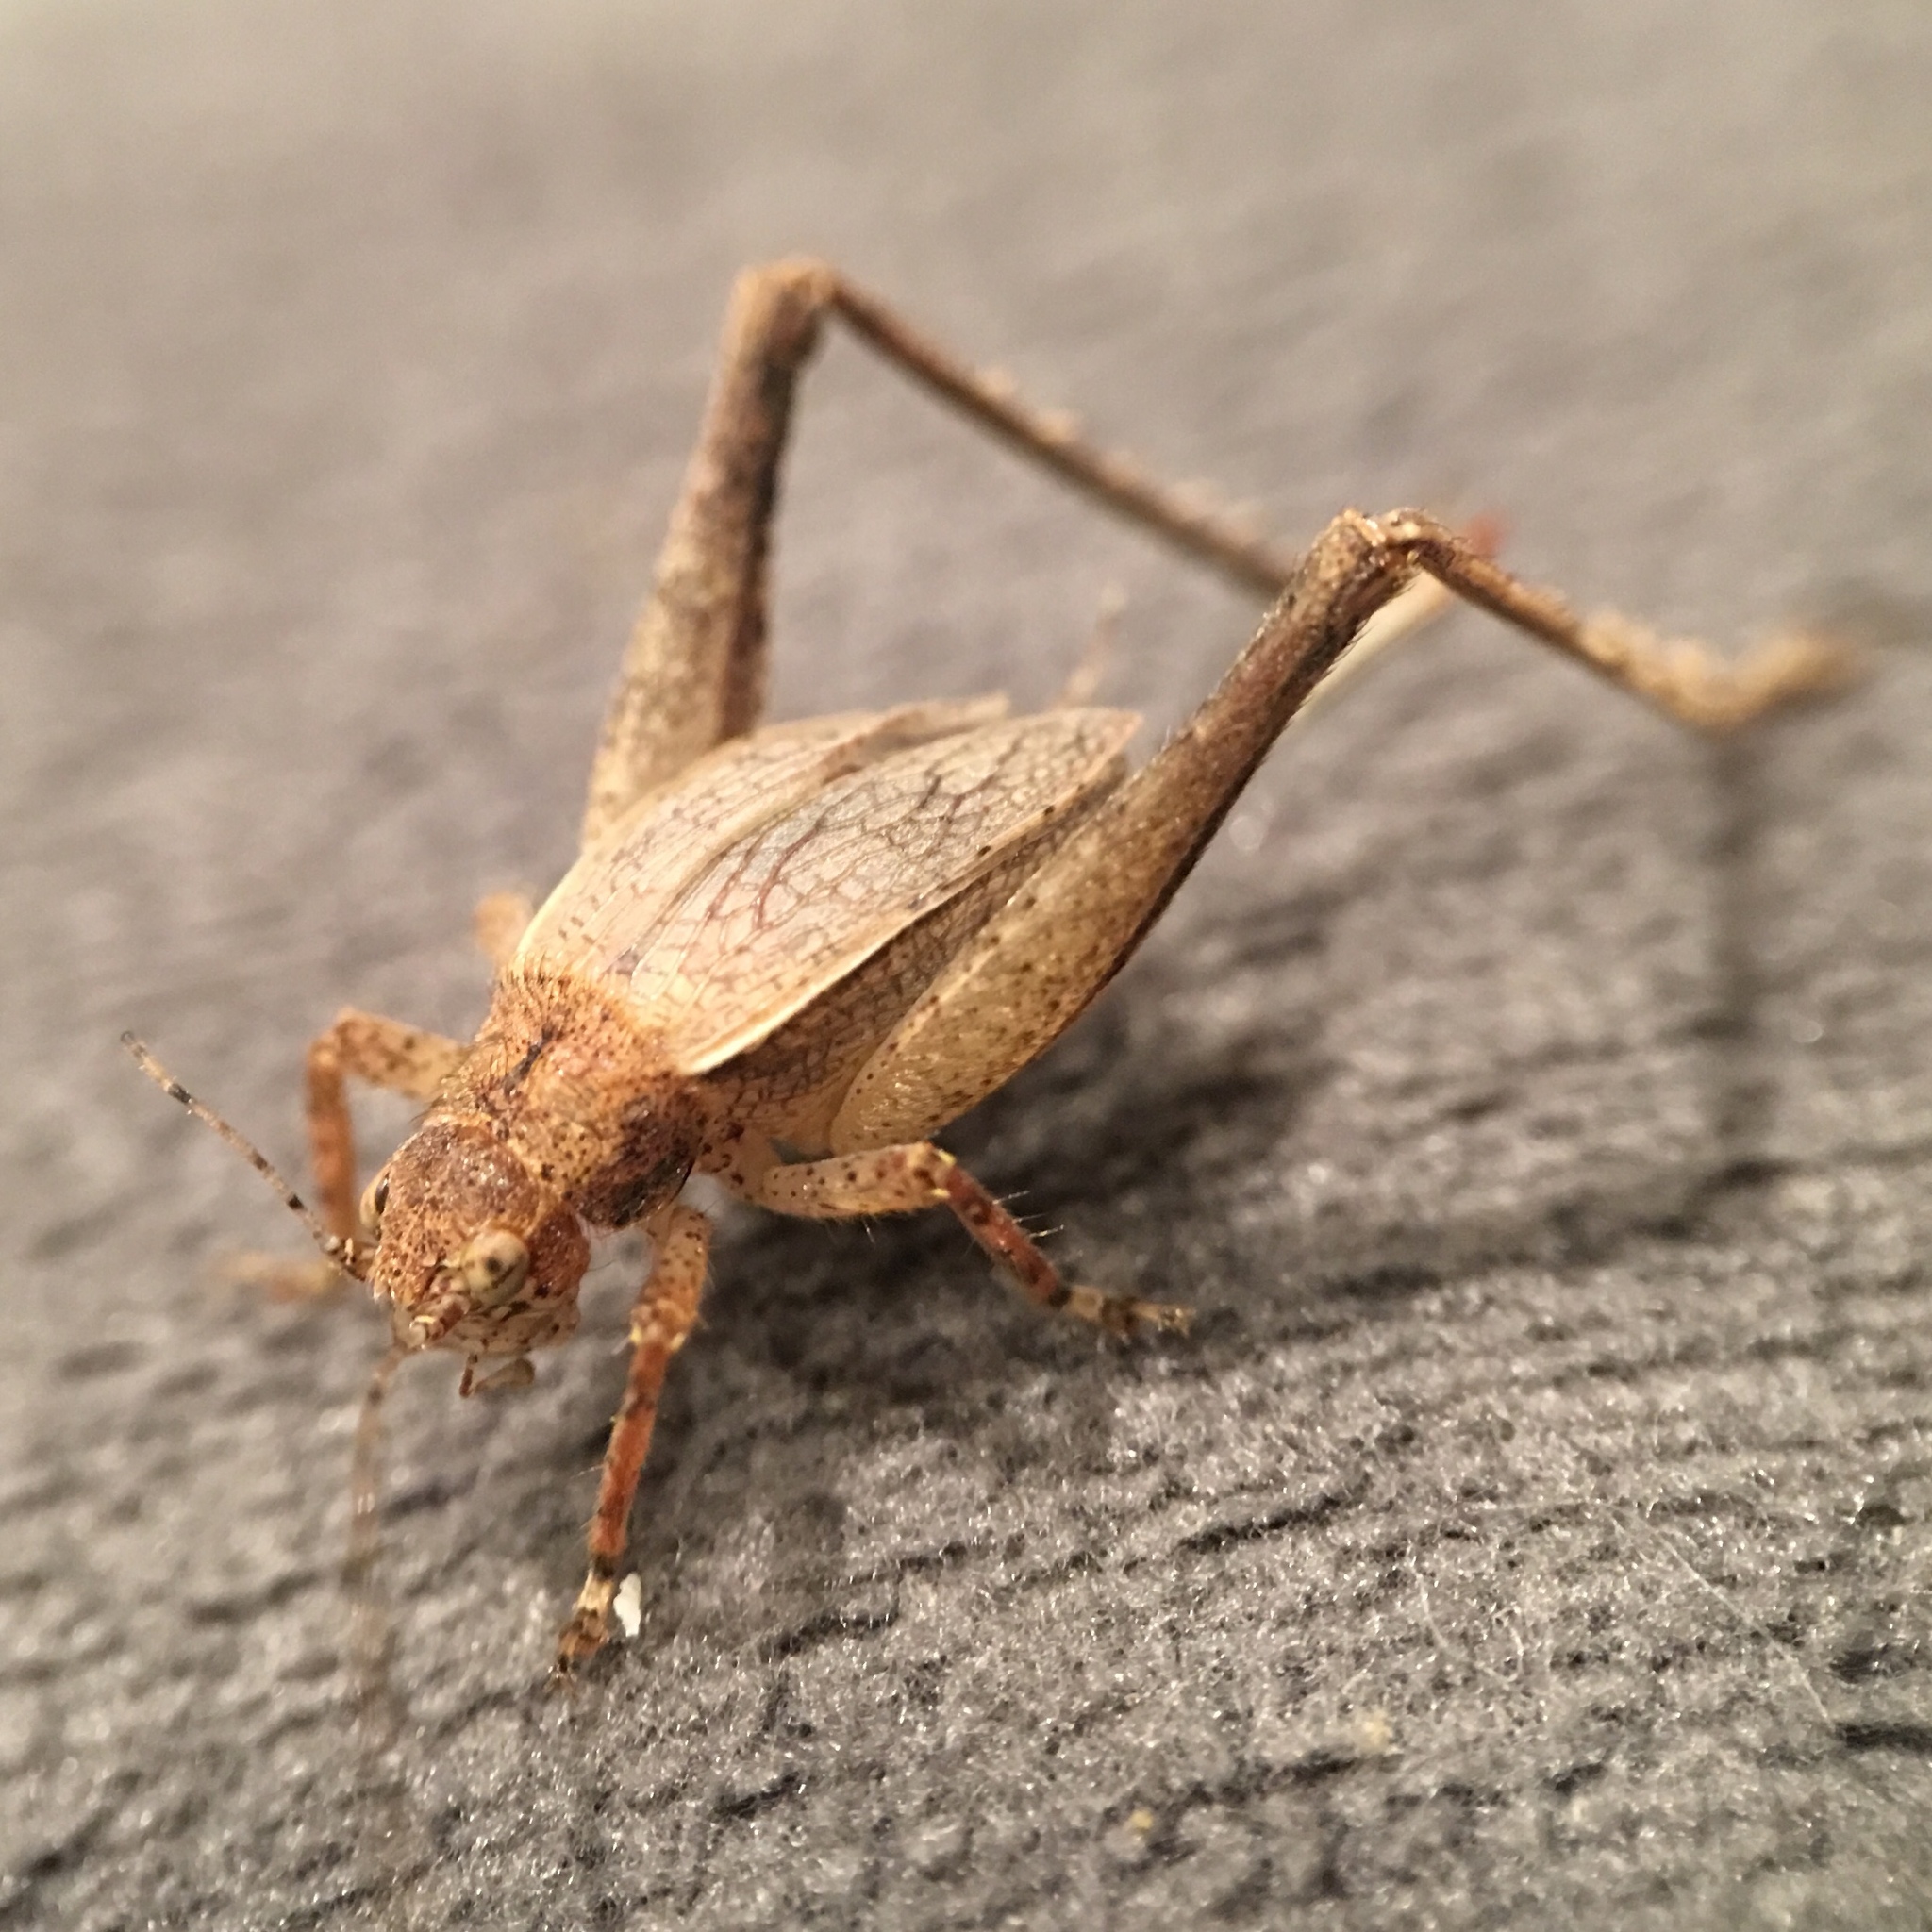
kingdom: Animalia
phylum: Arthropoda
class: Insecta
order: Orthoptera
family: Gryllidae
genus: Hapithus
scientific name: Hapithus agitator
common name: Restless bush cricket
